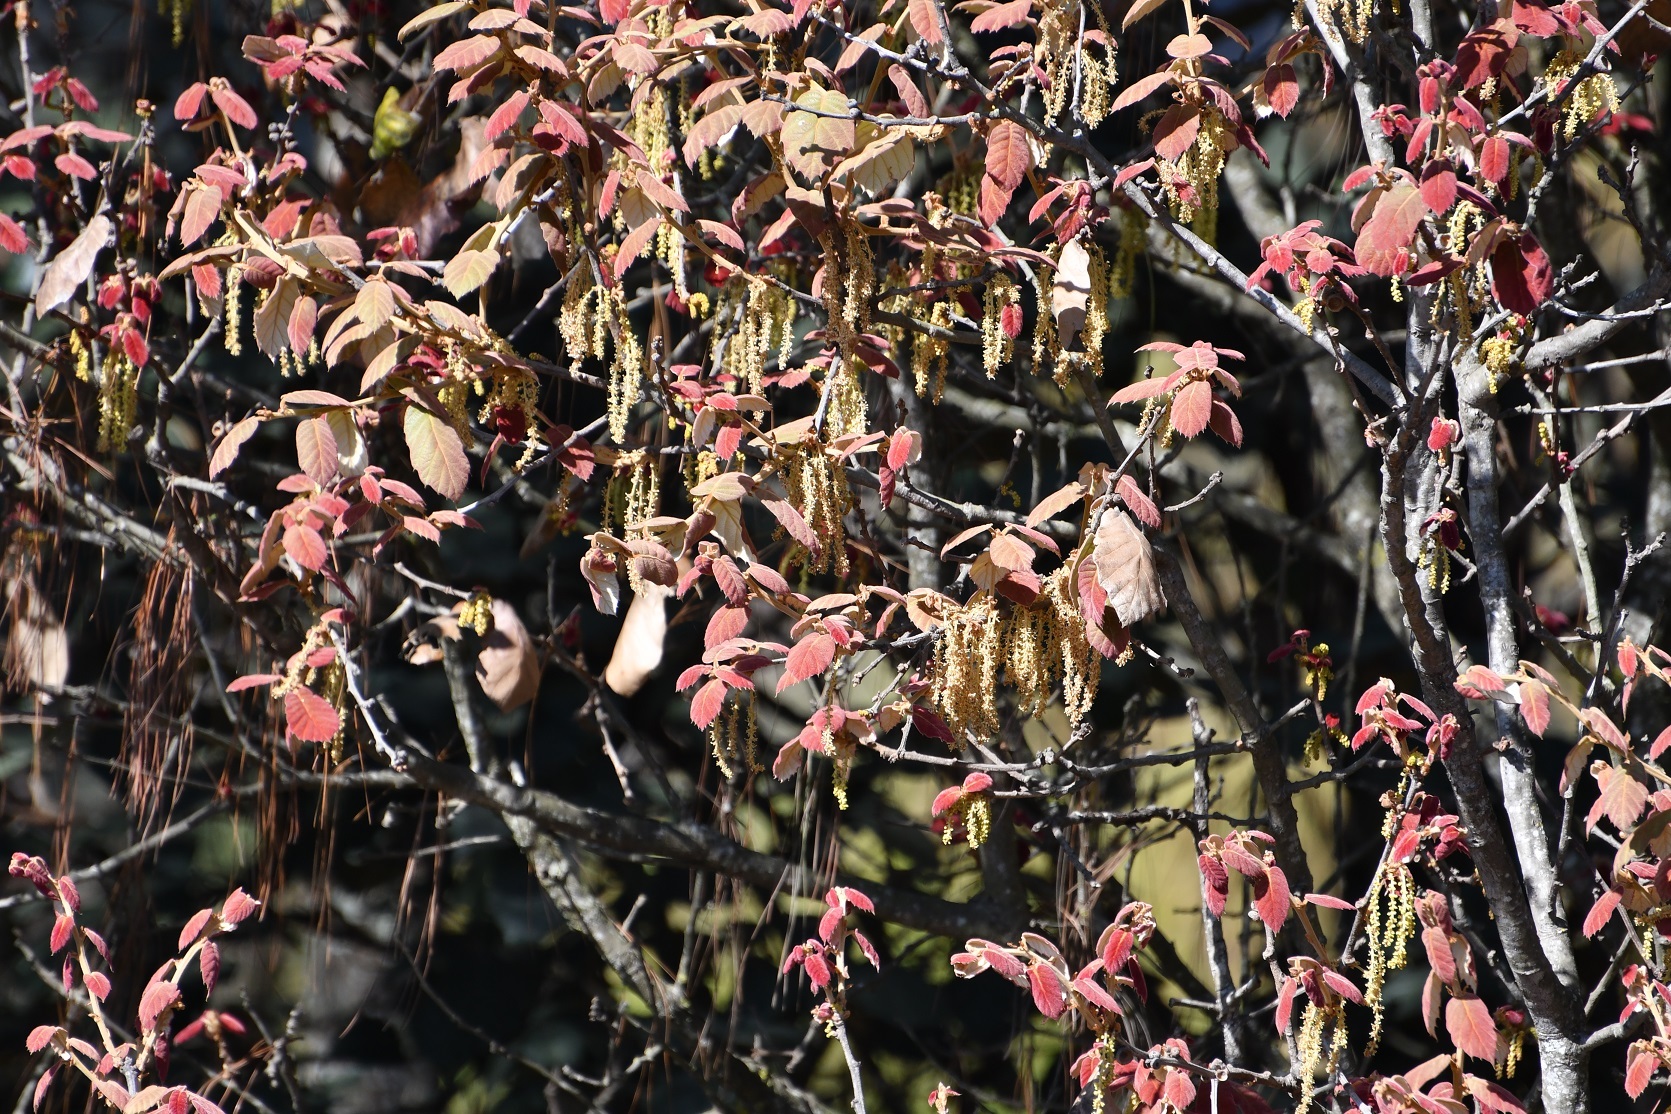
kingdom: Plantae
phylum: Tracheophyta
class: Magnoliopsida
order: Fagales
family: Fagaceae
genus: Quercus
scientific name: Quercus crassifolia
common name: Leather leaf mexican oak
